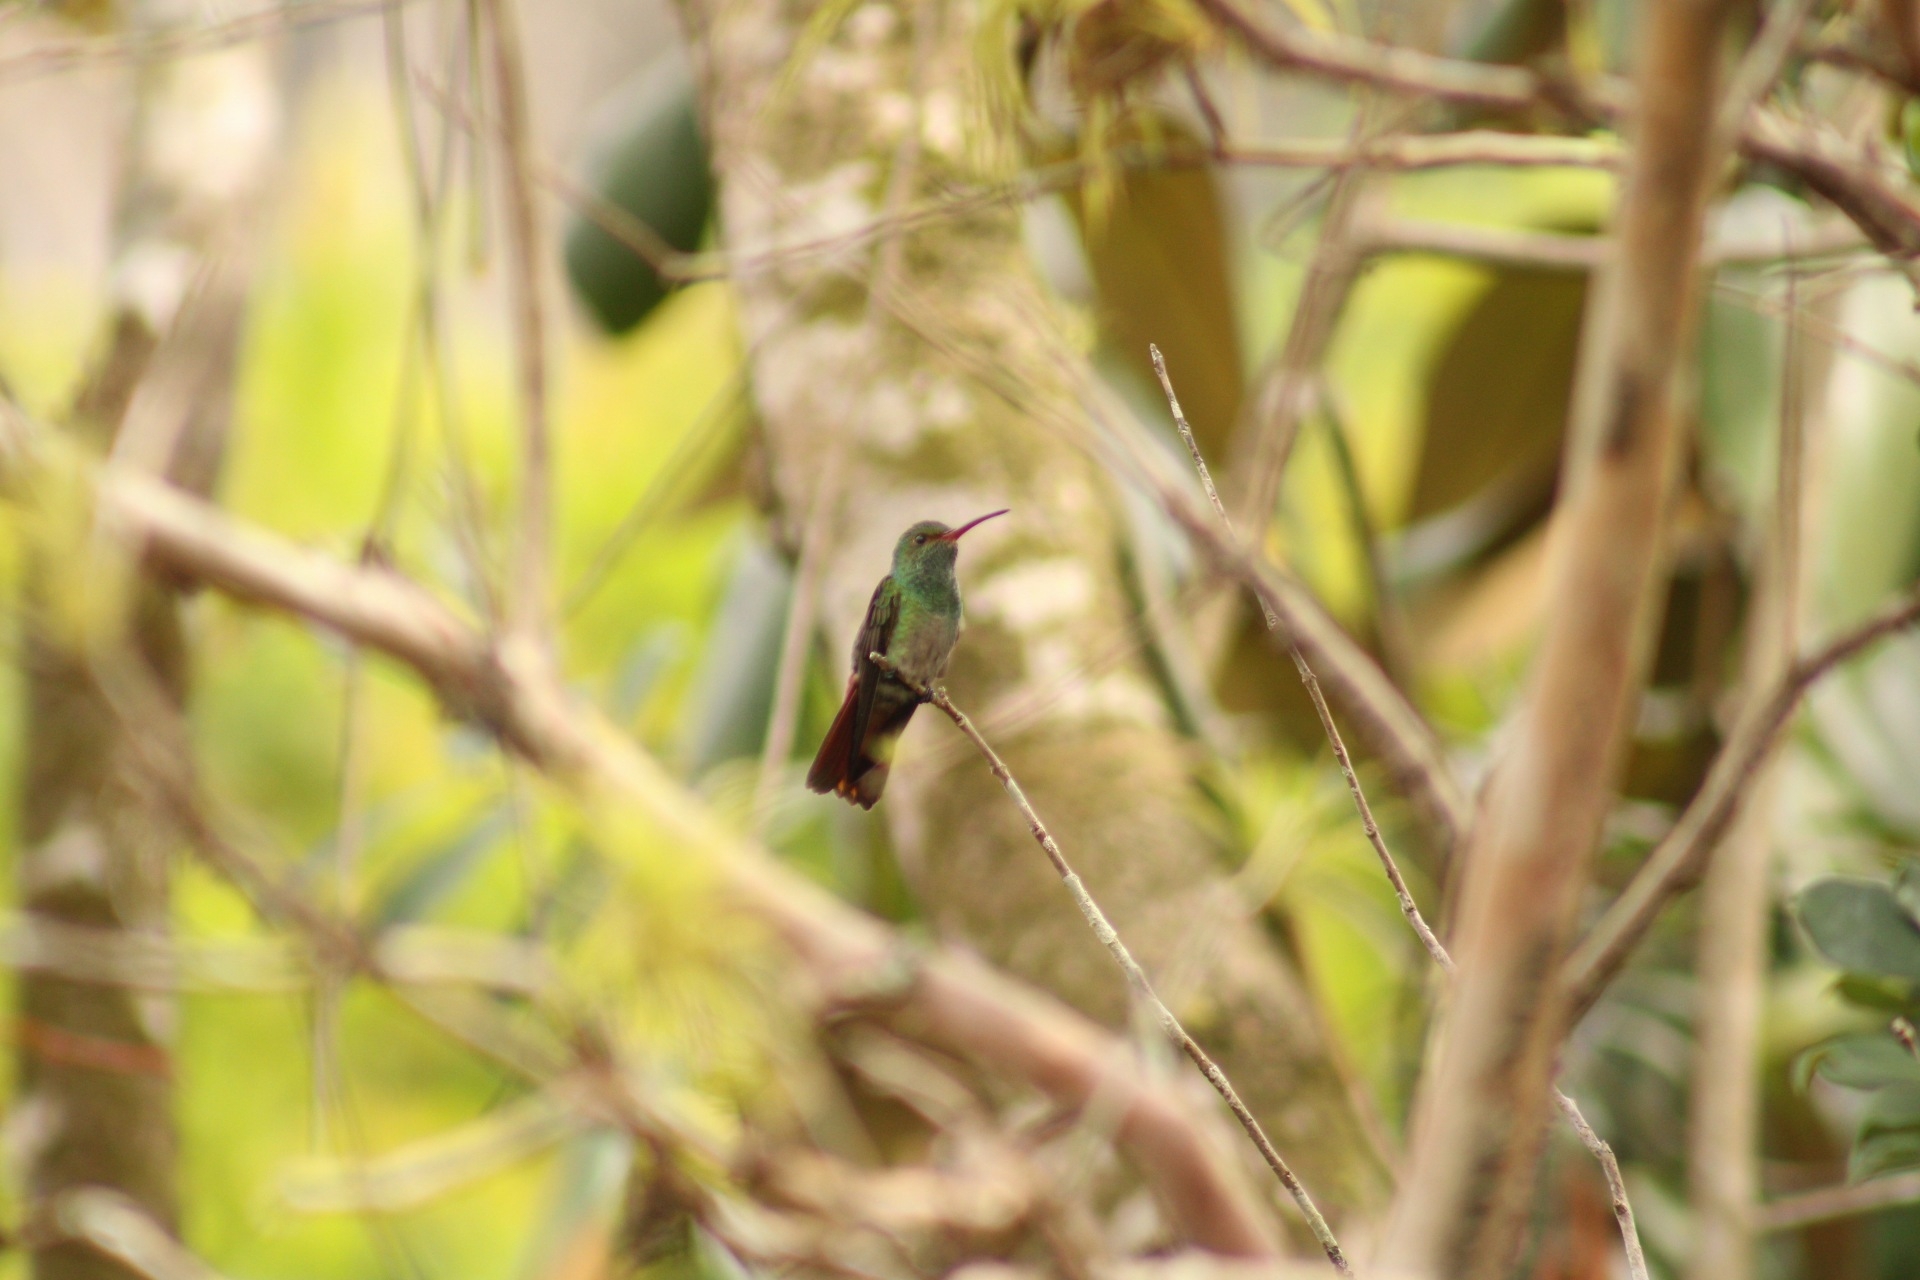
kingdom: Animalia
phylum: Chordata
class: Aves
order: Apodiformes
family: Trochilidae
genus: Amazilia
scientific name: Amazilia tzacatl
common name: Rufous-tailed hummingbird
